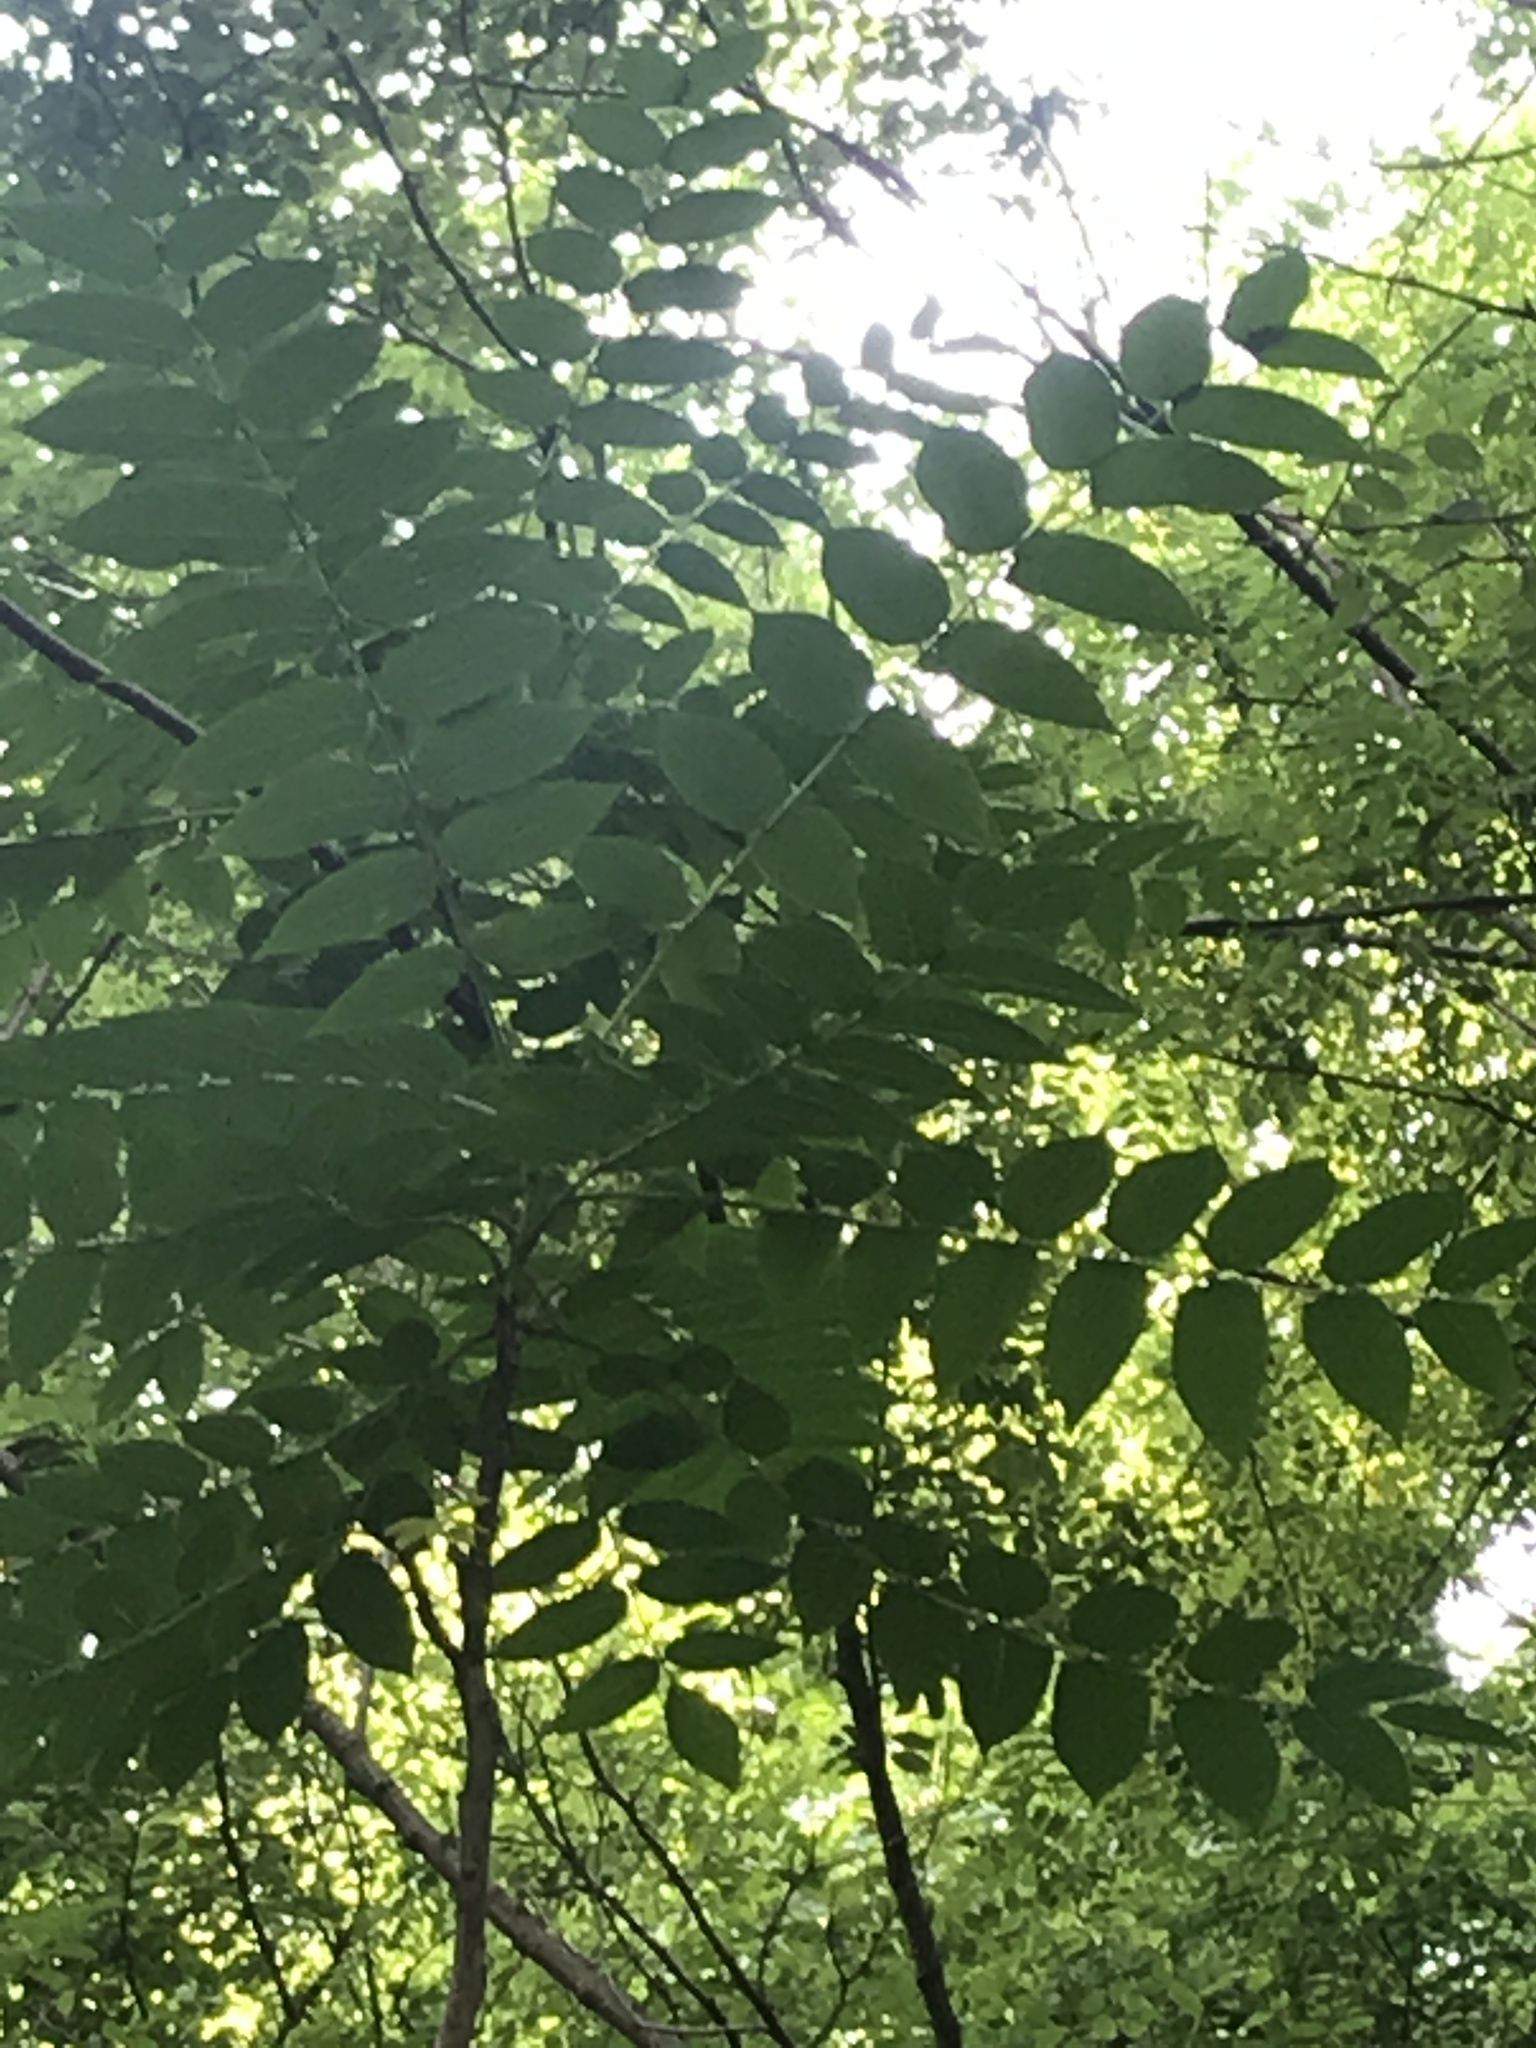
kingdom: Plantae
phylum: Tracheophyta
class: Magnoliopsida
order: Sapindales
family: Simaroubaceae
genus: Ailanthus
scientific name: Ailanthus altissima
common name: Tree-of-heaven
